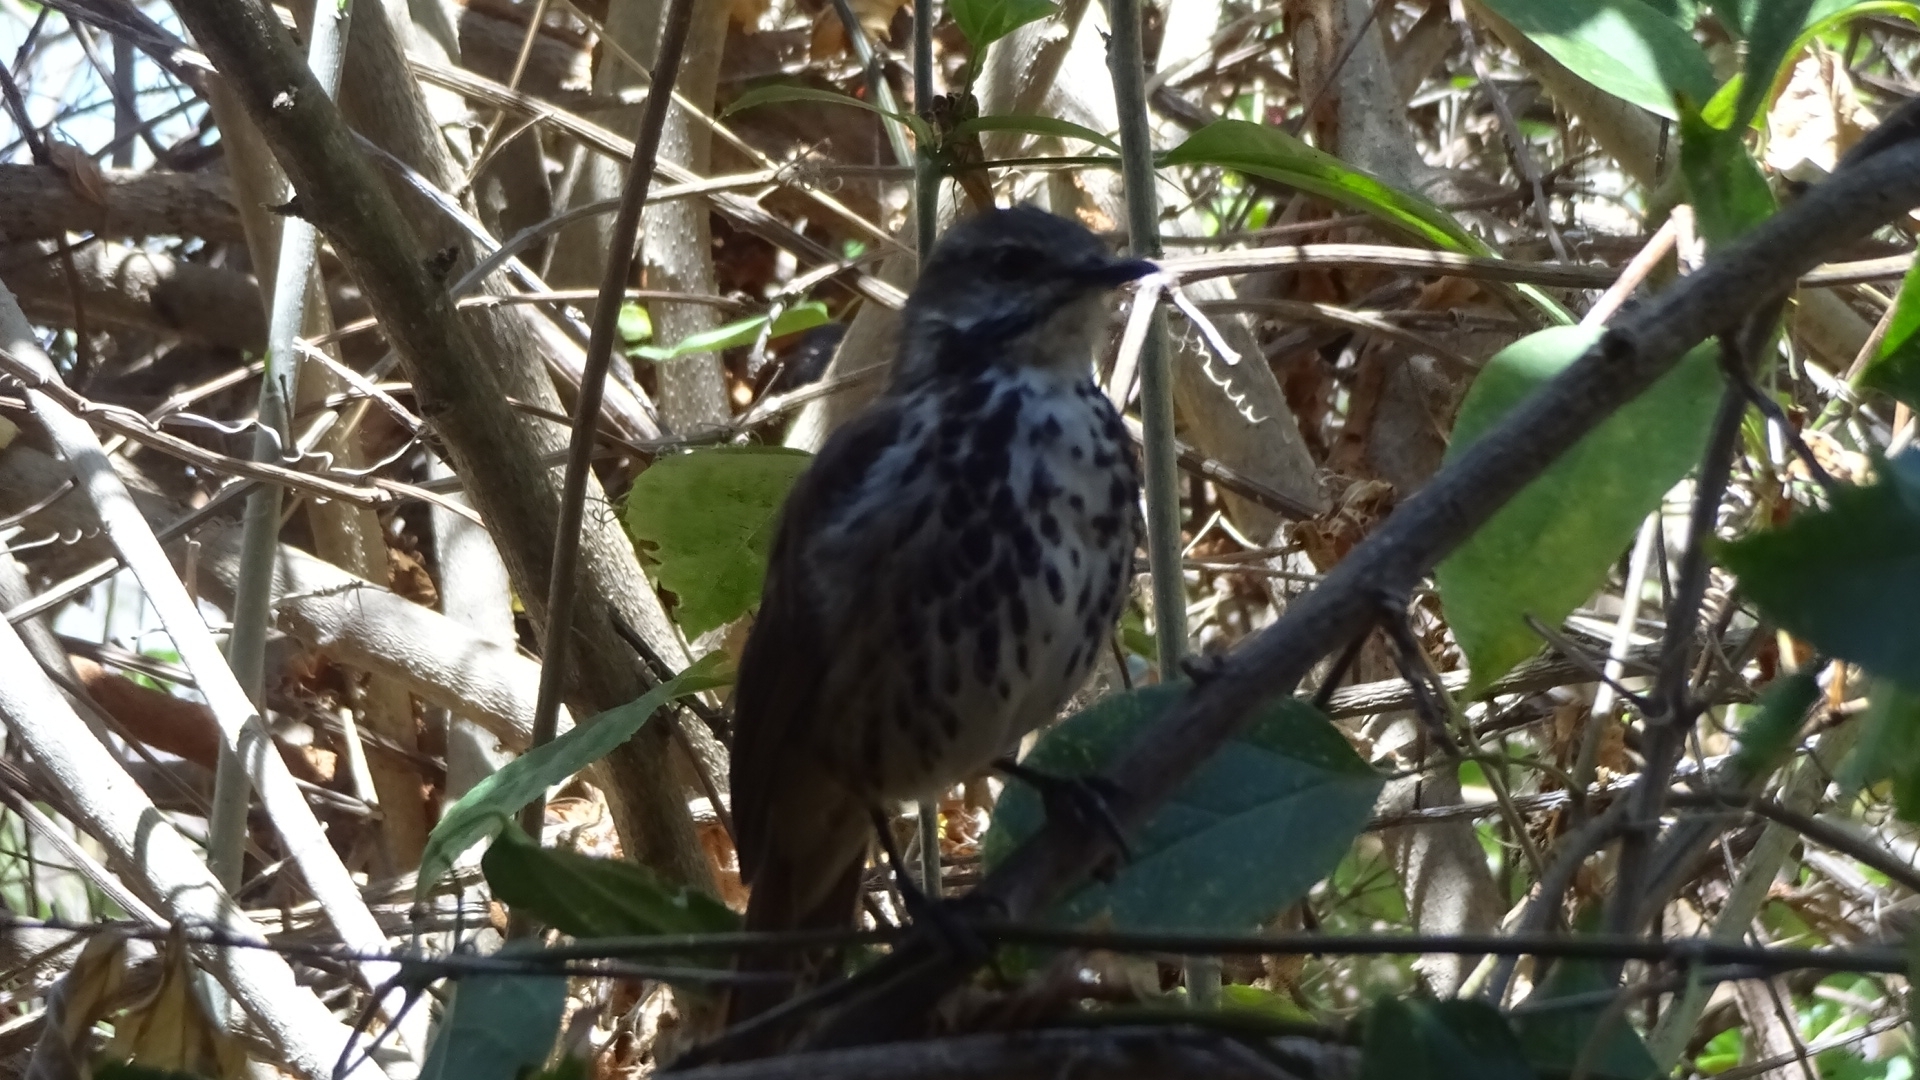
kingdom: Animalia
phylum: Chordata
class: Aves
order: Passeriformes
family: Muscicapidae
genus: Cichladusa
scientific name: Cichladusa guttata
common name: Spotted palm thrush
